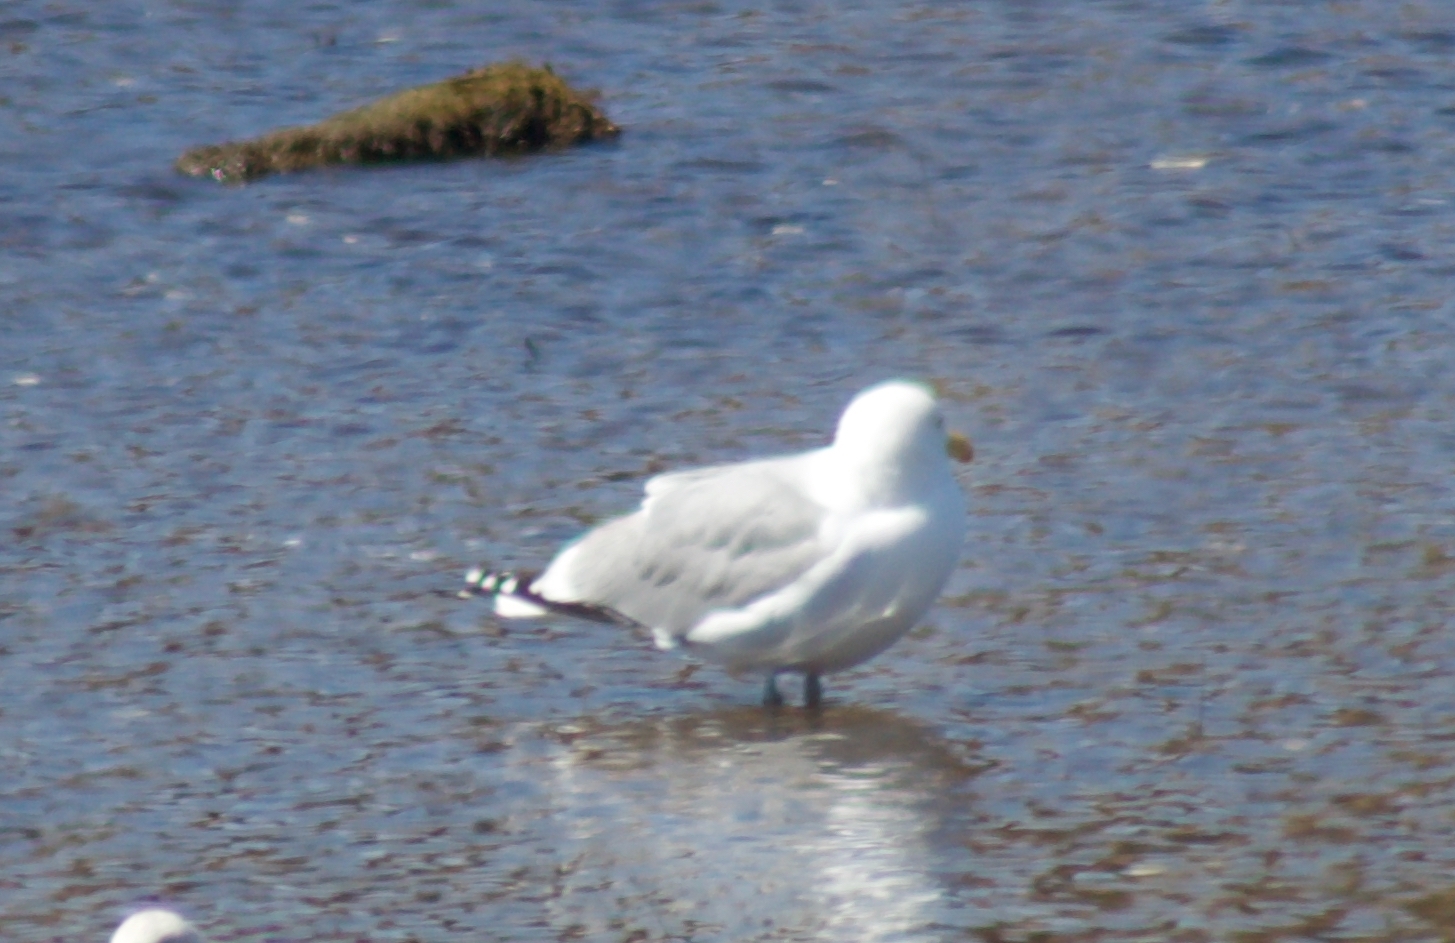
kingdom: Animalia
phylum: Chordata
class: Aves
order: Charadriiformes
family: Laridae
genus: Larus
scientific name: Larus argentatus
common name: Herring gull
